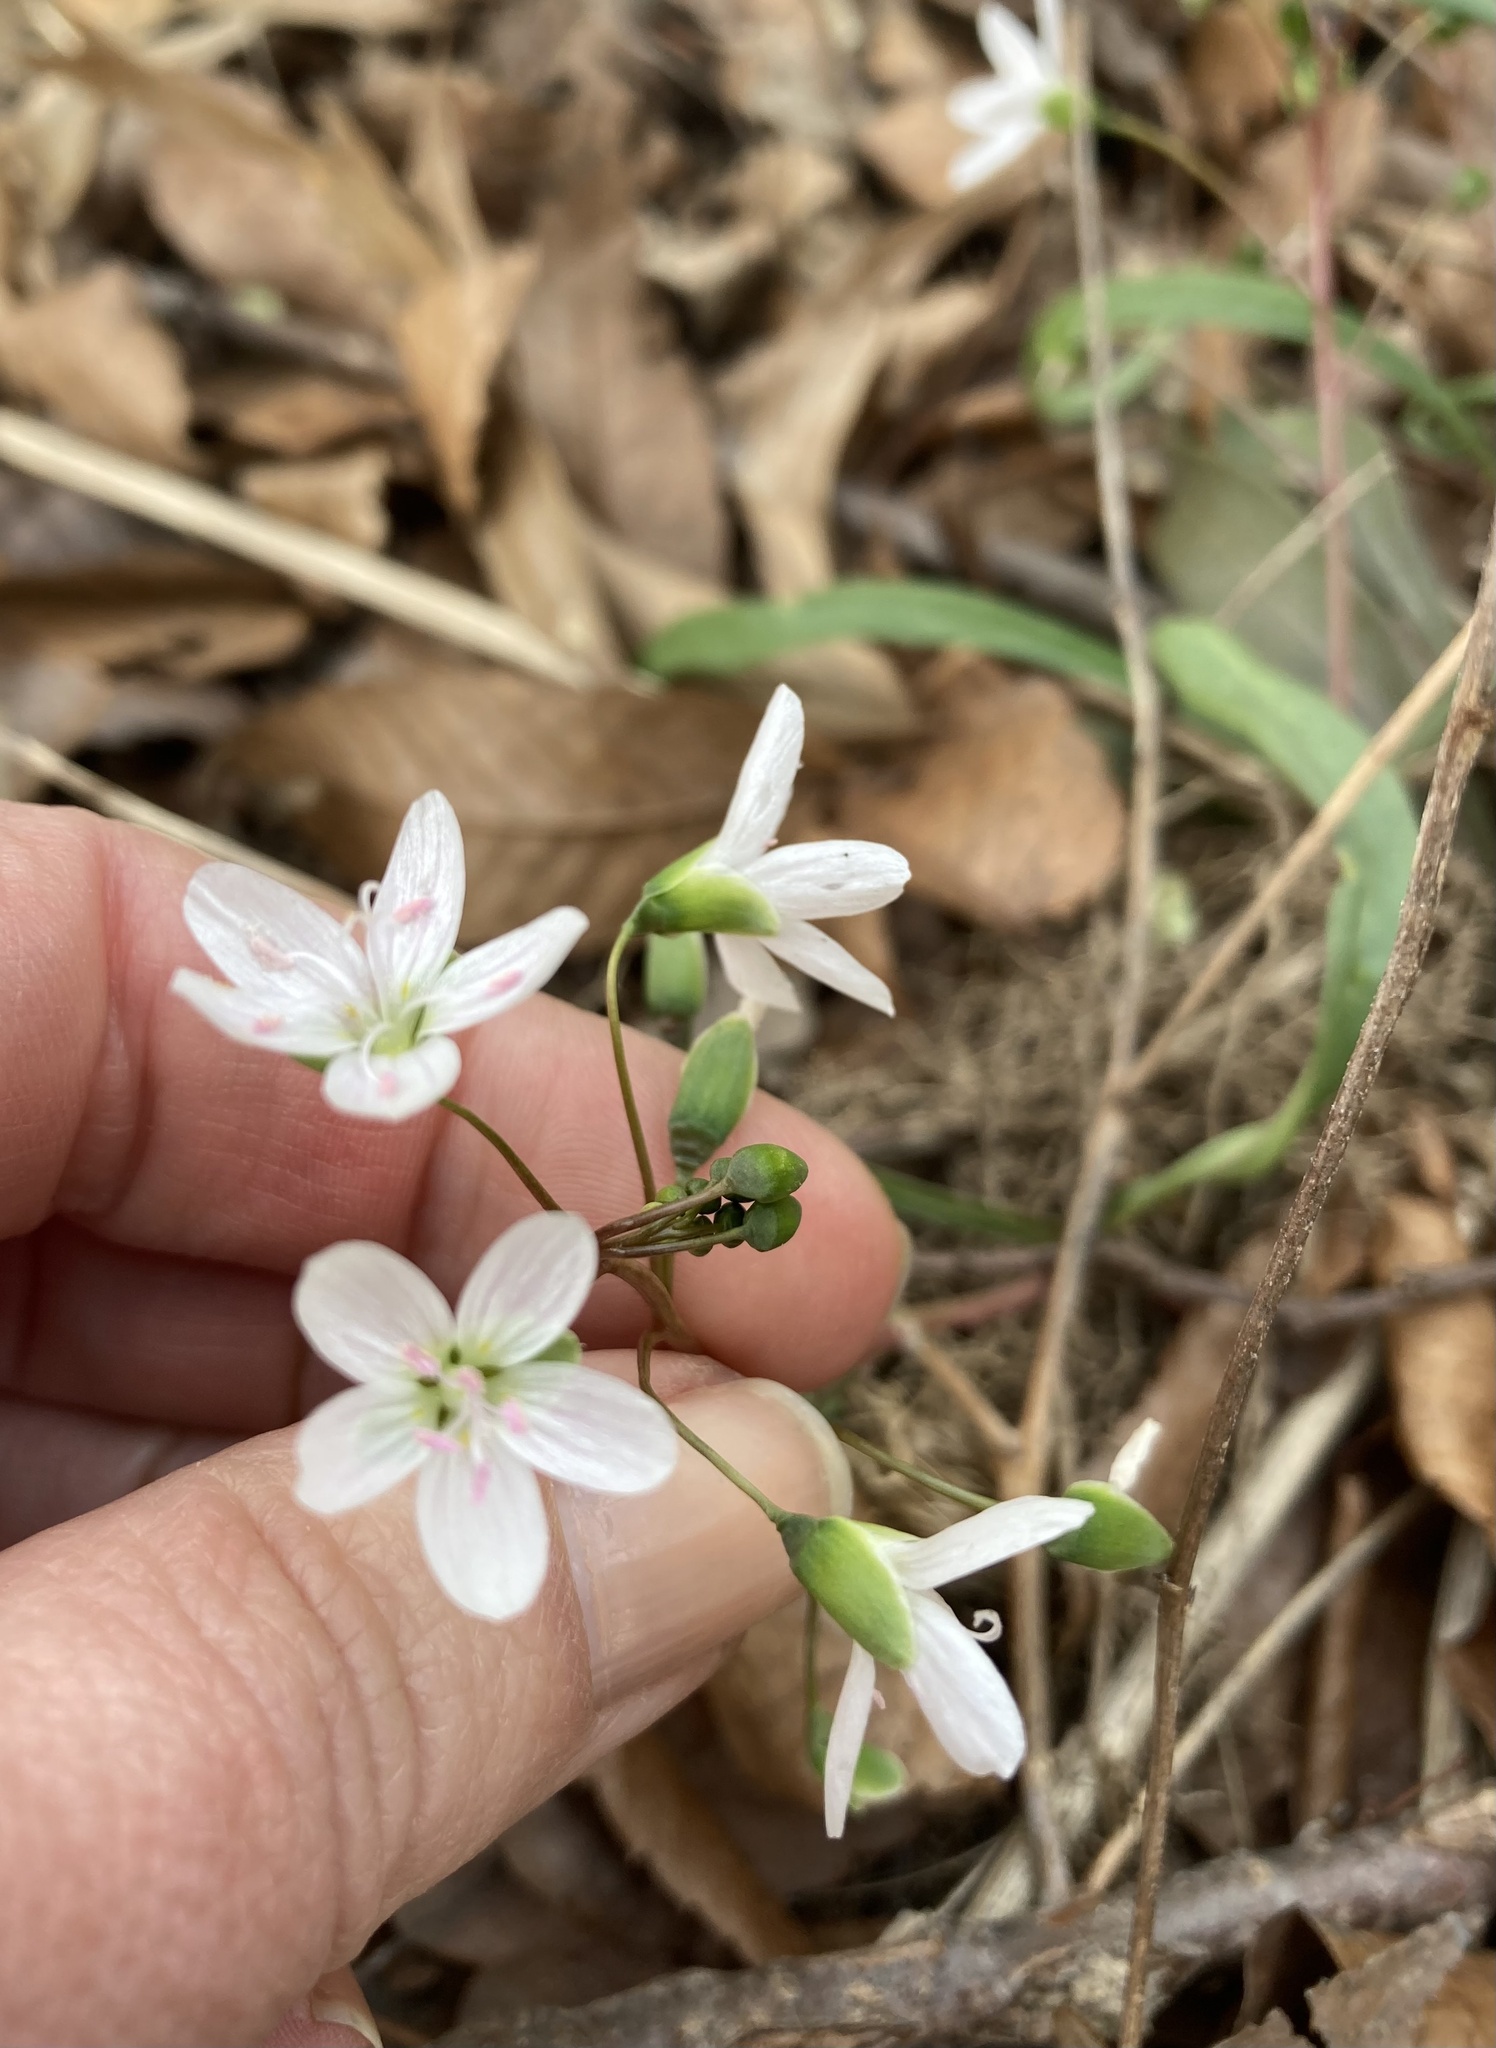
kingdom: Plantae
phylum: Tracheophyta
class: Magnoliopsida
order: Caryophyllales
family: Montiaceae
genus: Claytonia
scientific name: Claytonia virginica
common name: Virginia springbeauty
